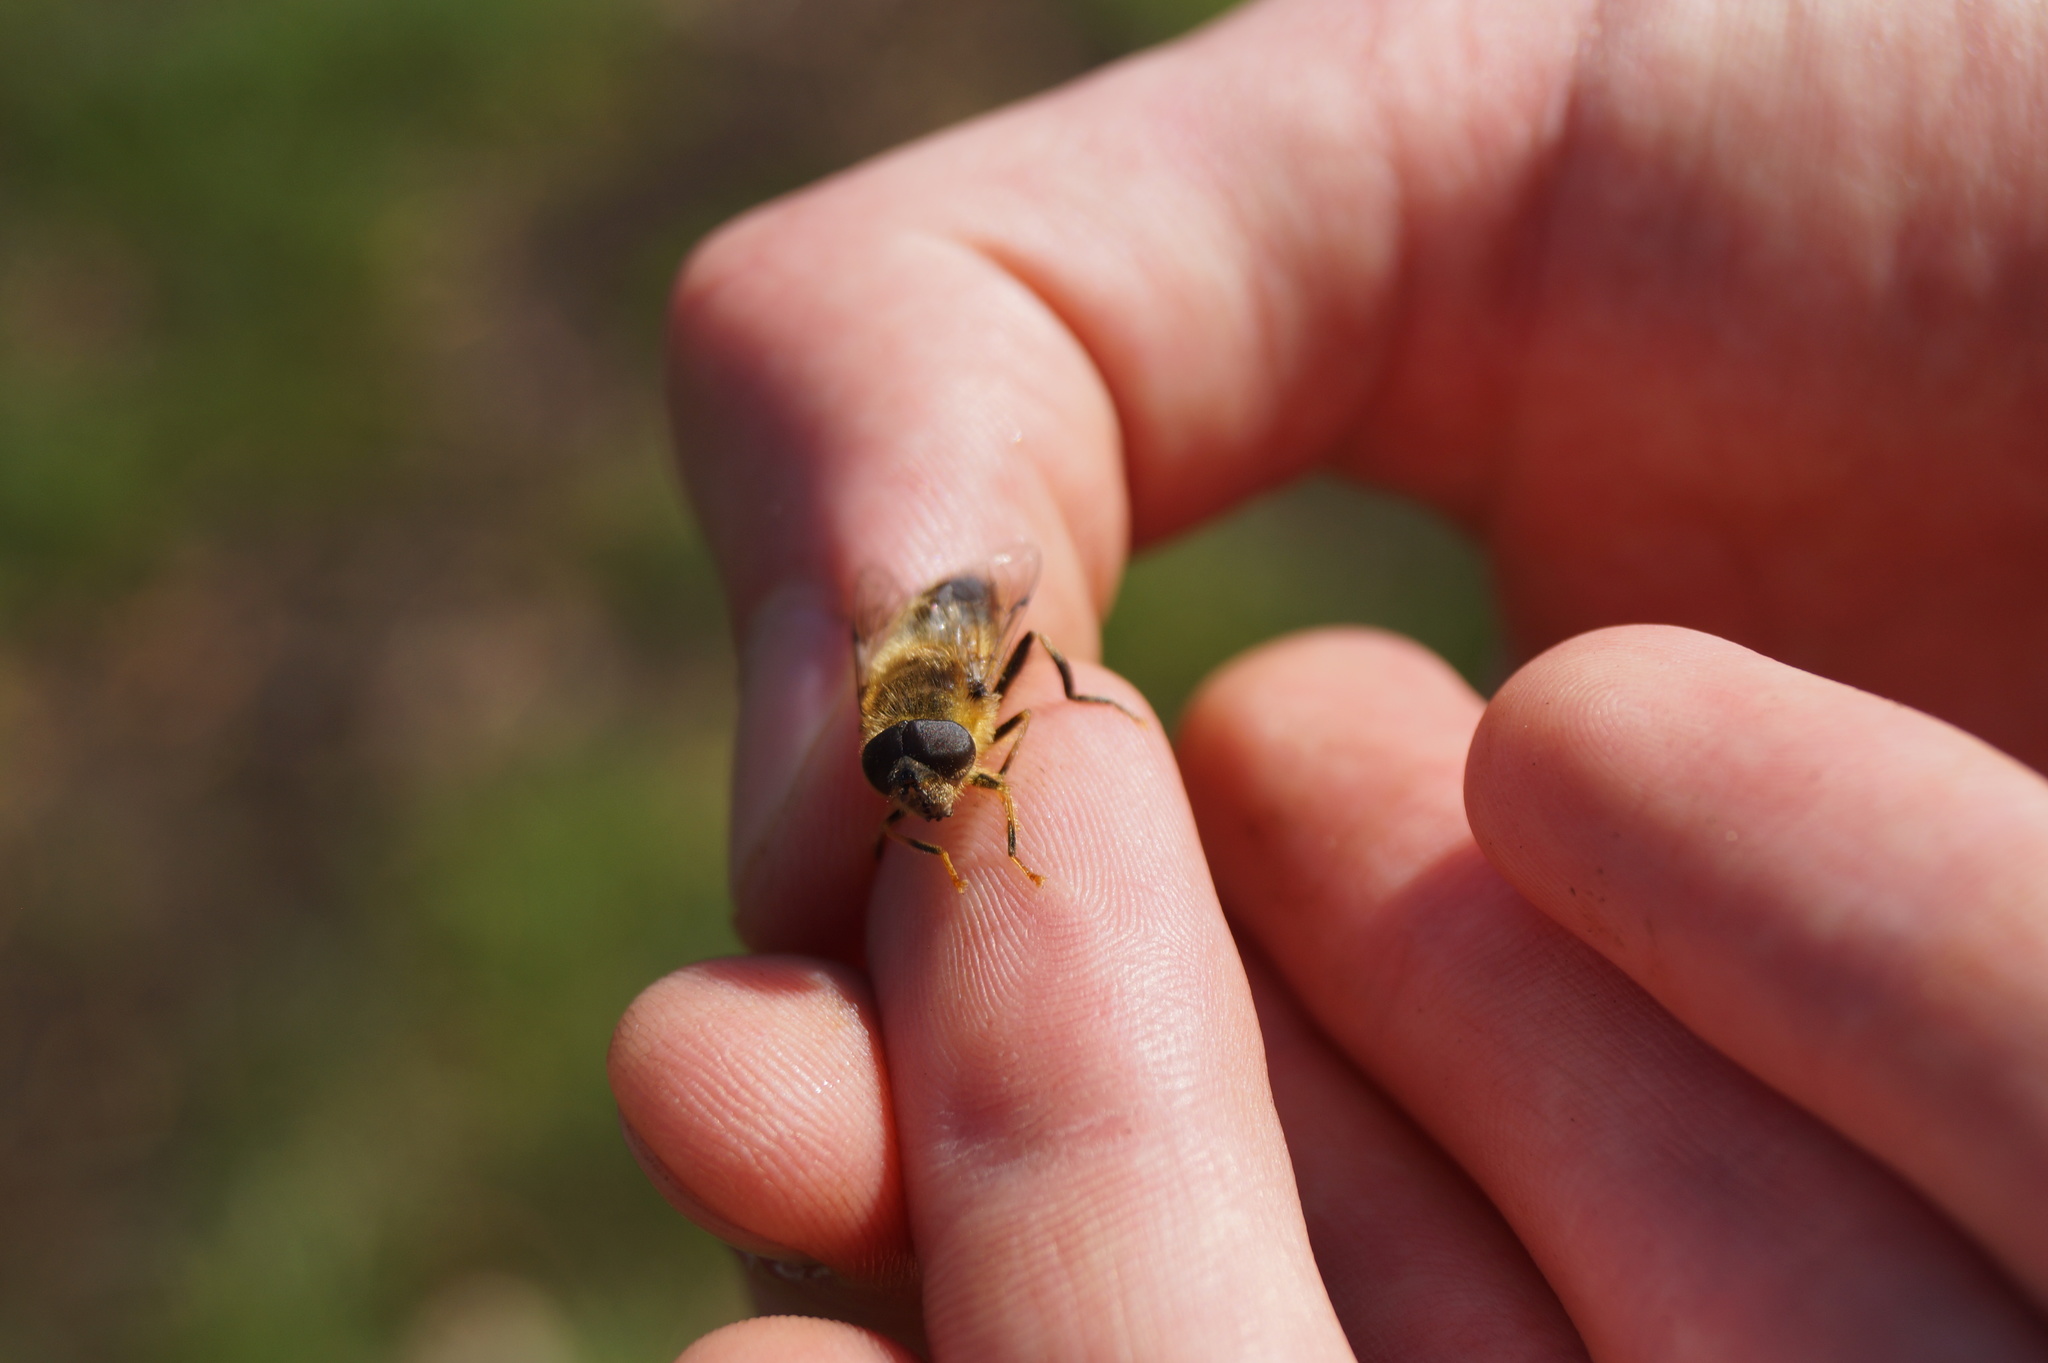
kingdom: Animalia
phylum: Arthropoda
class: Insecta
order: Diptera
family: Syrphidae
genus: Eristalis
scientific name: Eristalis pertinax
